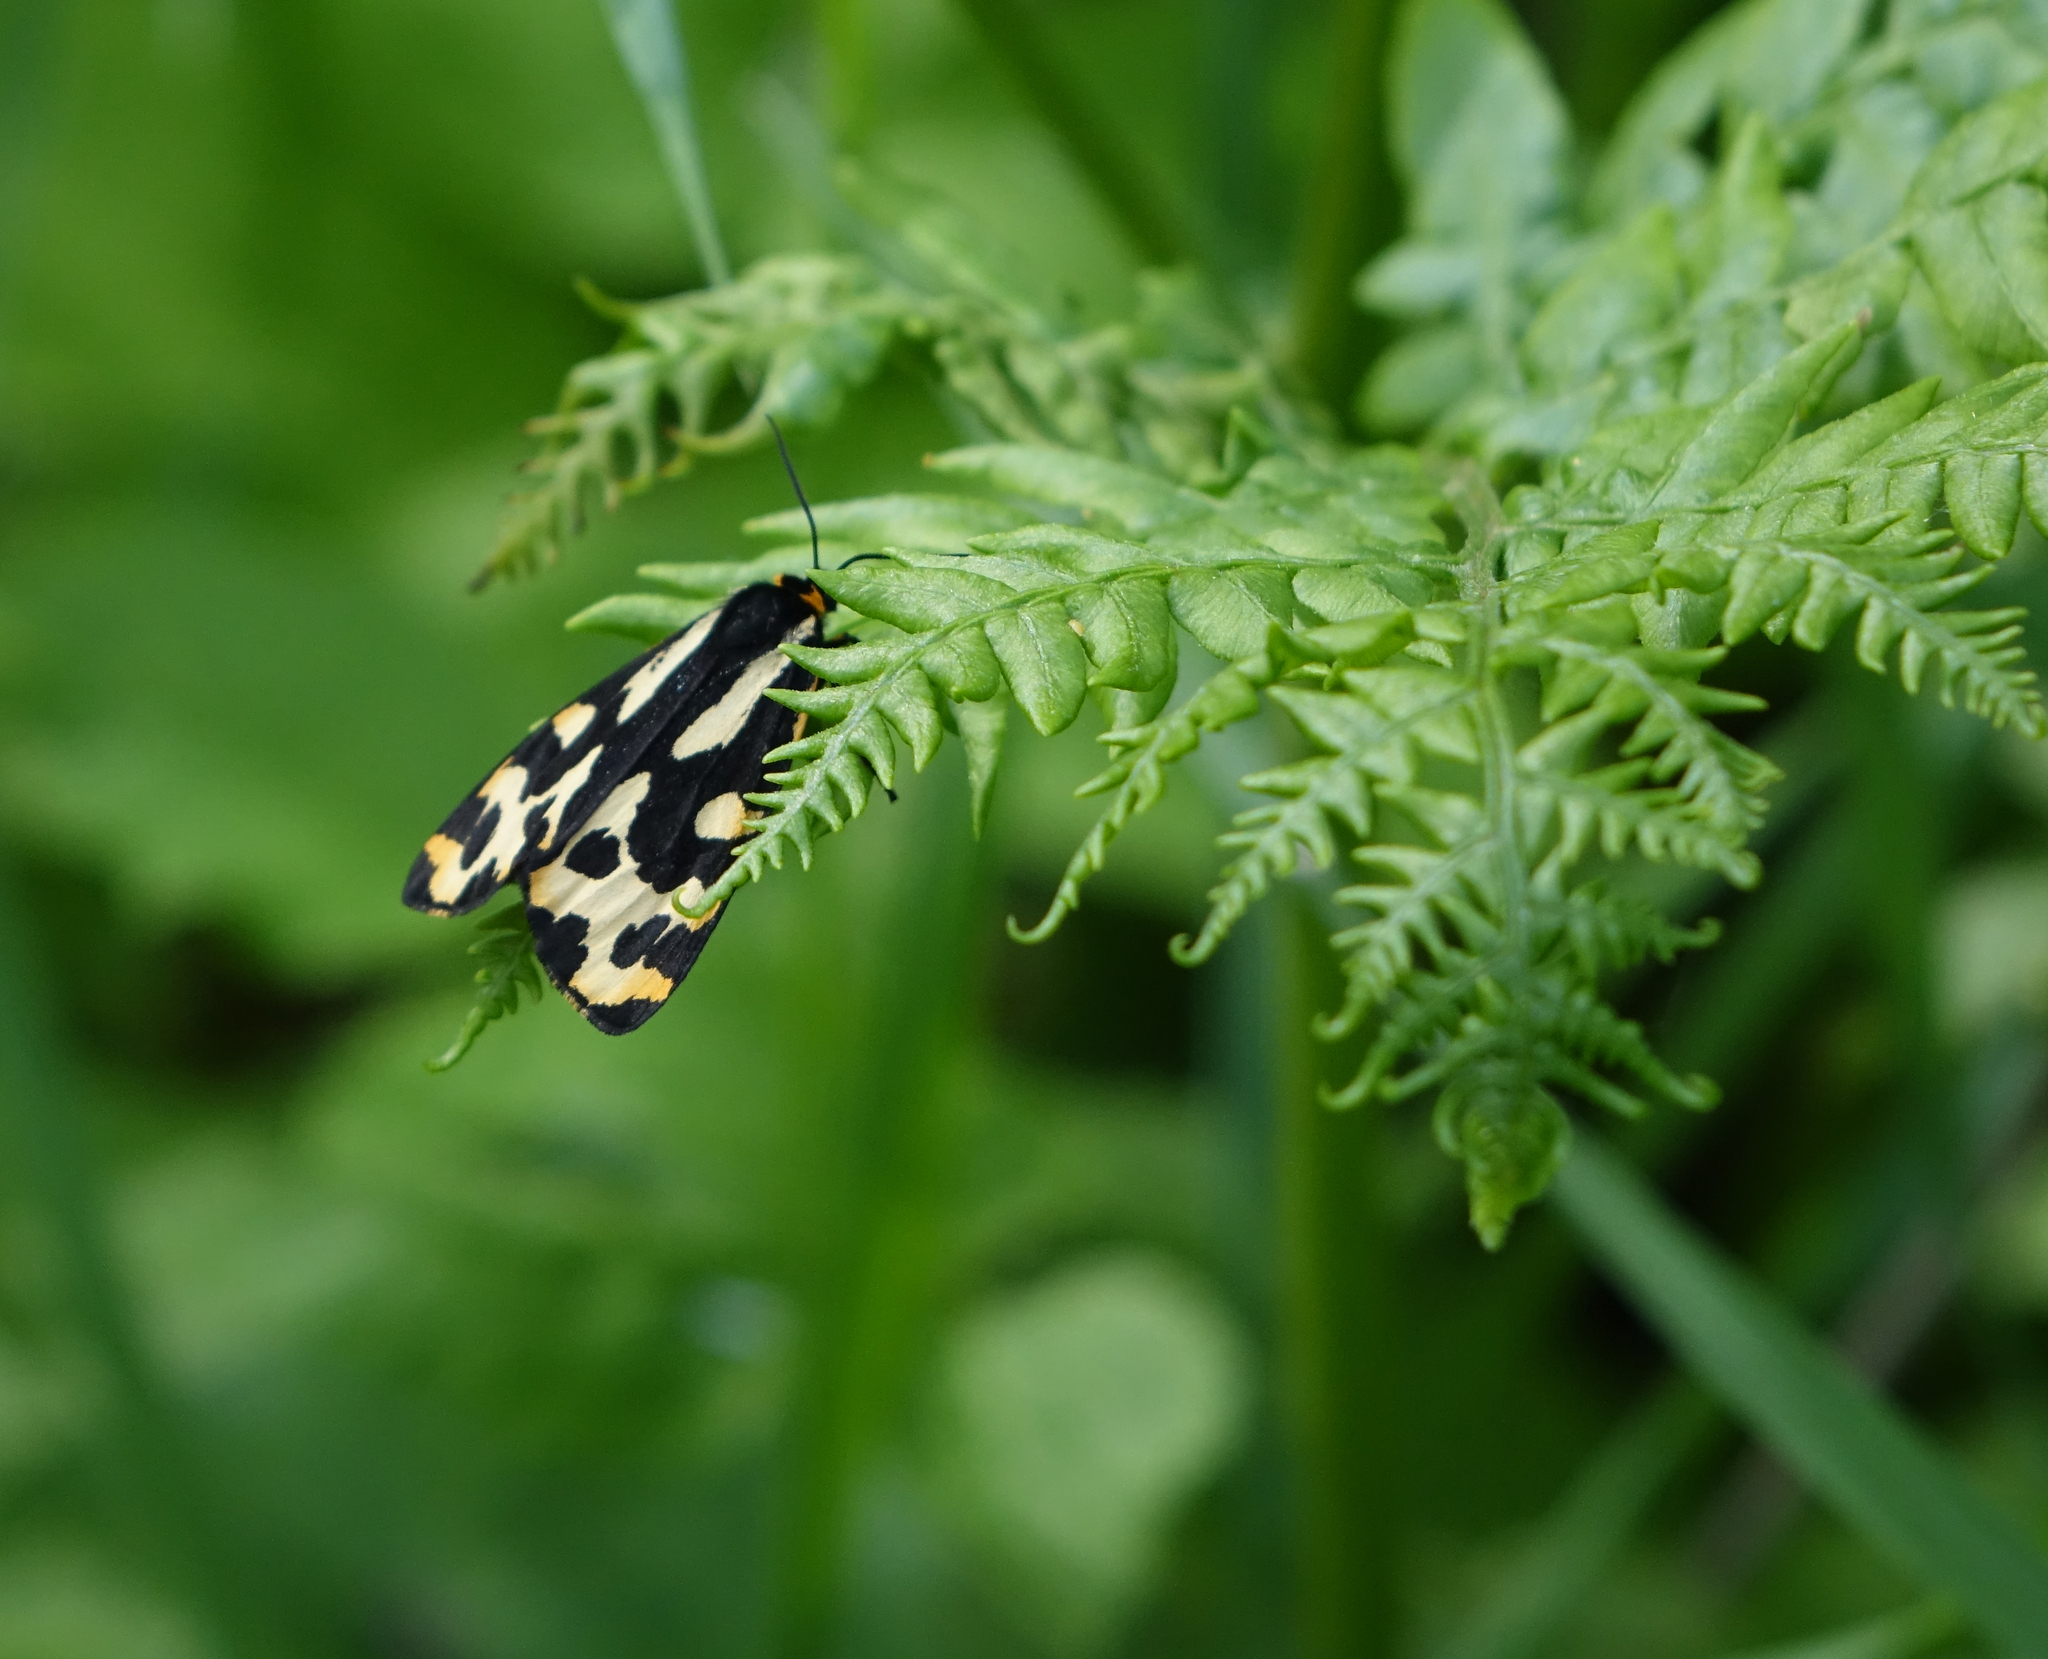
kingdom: Animalia
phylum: Arthropoda
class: Insecta
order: Lepidoptera
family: Erebidae
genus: Parasemia
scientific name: Parasemia plantaginis
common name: Wood tiger
